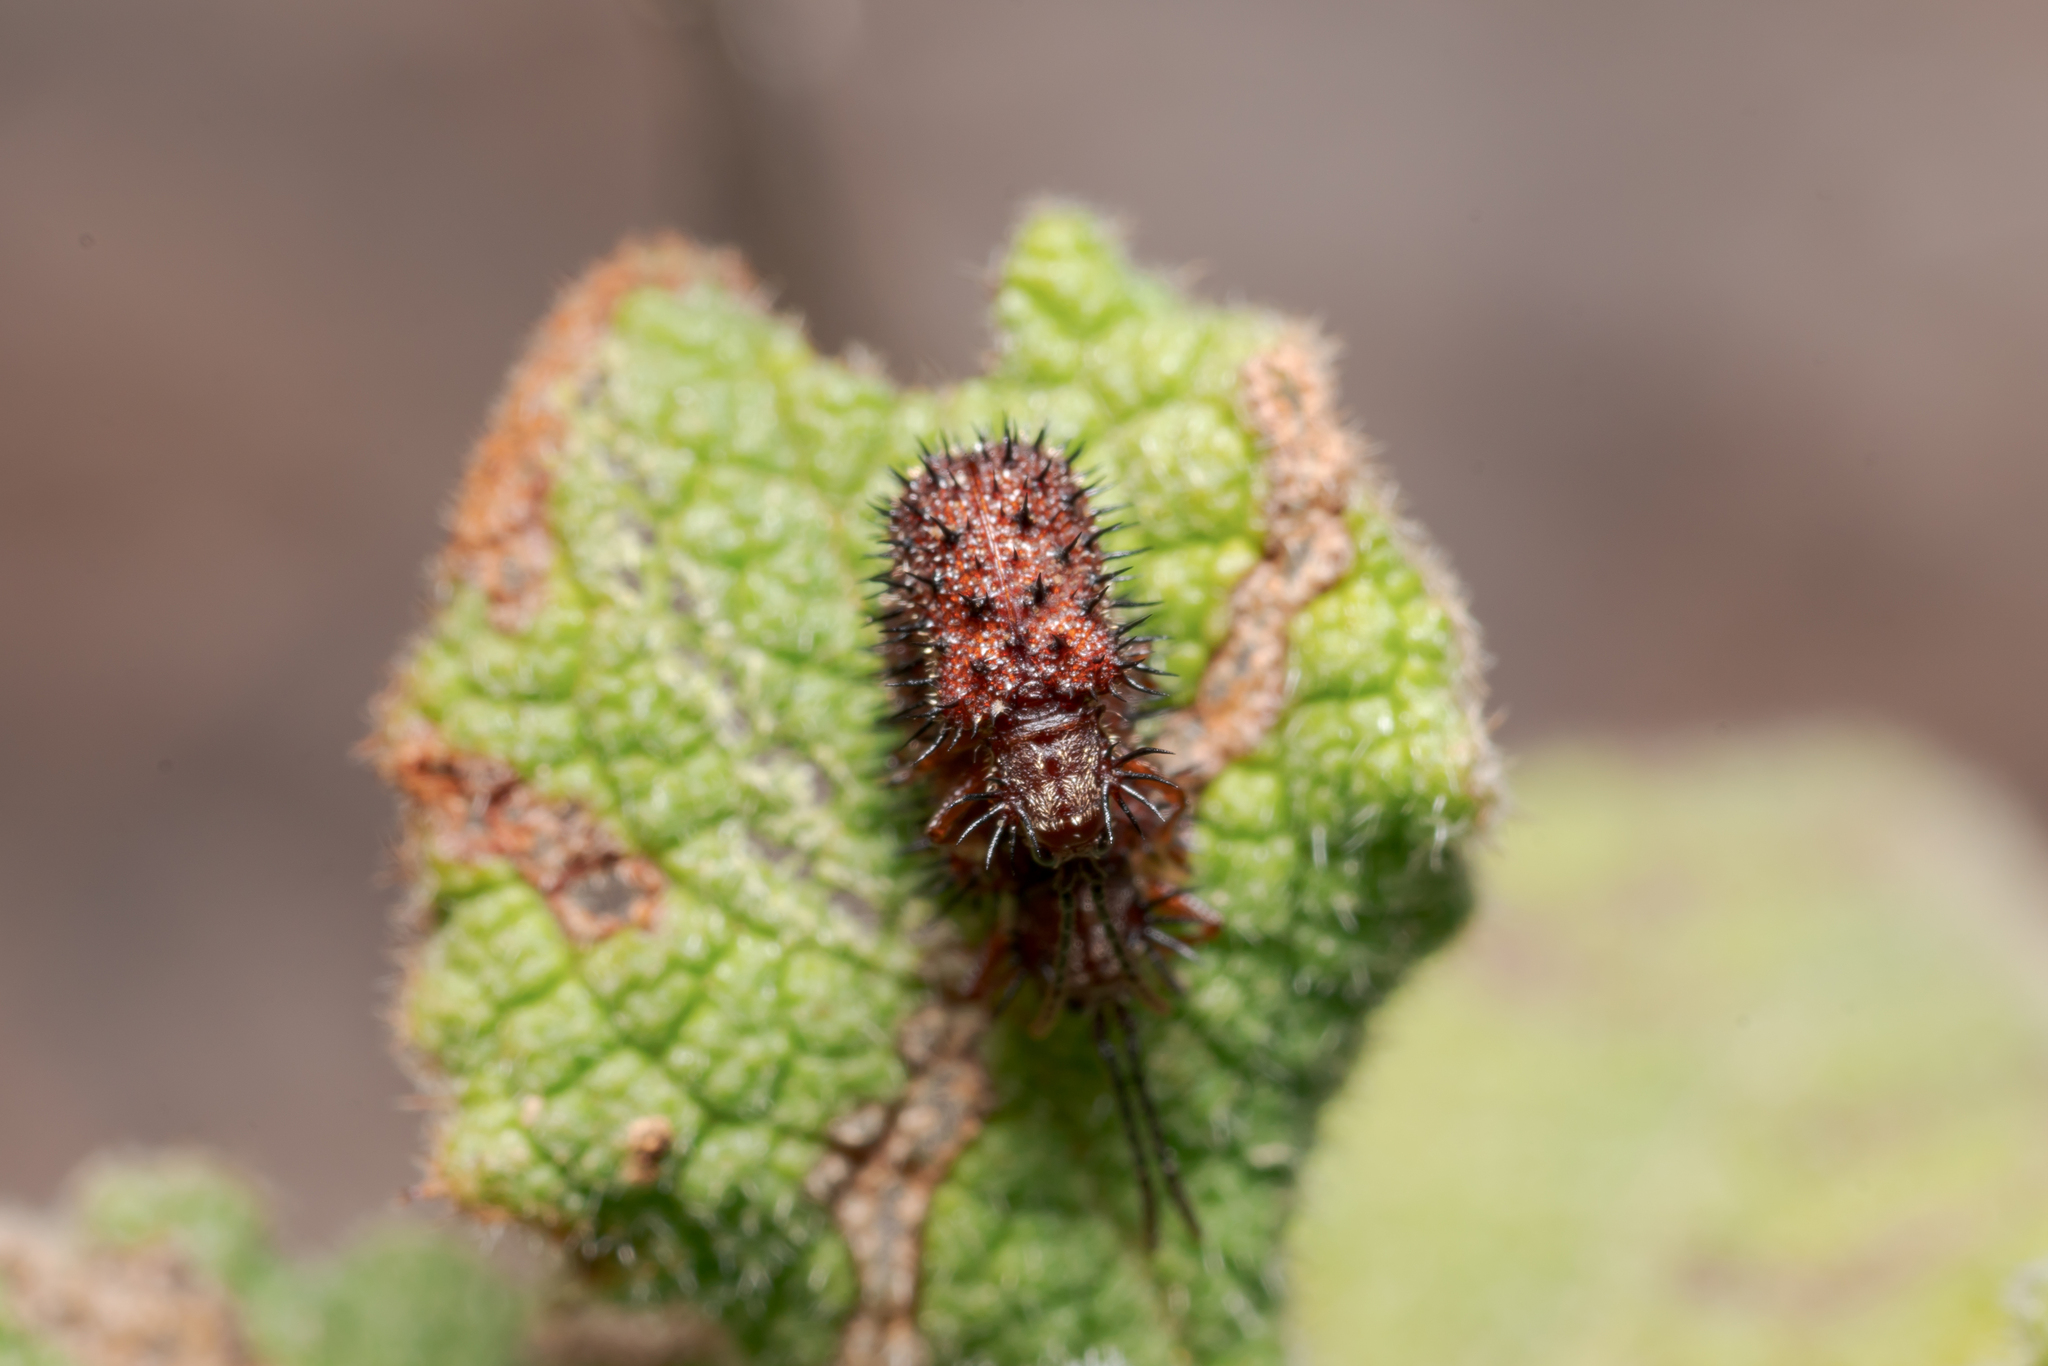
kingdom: Animalia
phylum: Arthropoda
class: Insecta
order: Coleoptera
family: Chrysomelidae
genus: Dicladispa
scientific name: Dicladispa testacea
